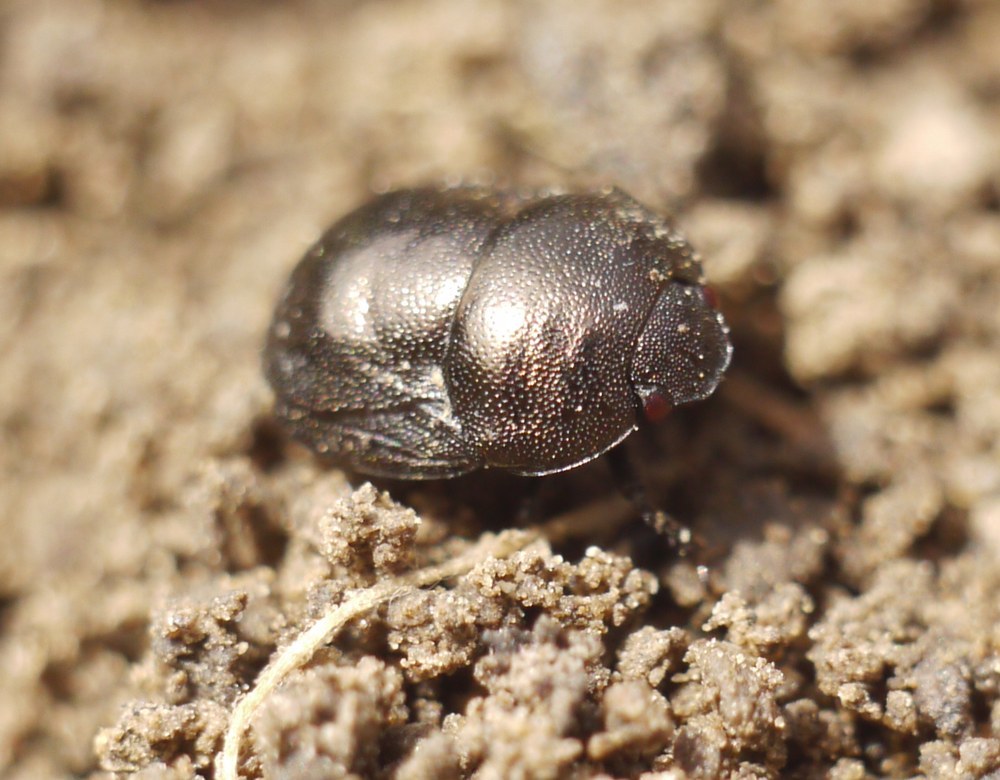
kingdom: Animalia
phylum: Arthropoda
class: Insecta
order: Hemiptera
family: Thyreocoridae
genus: Thyreocoris
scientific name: Thyreocoris scarabaeoides
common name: Negro bug
